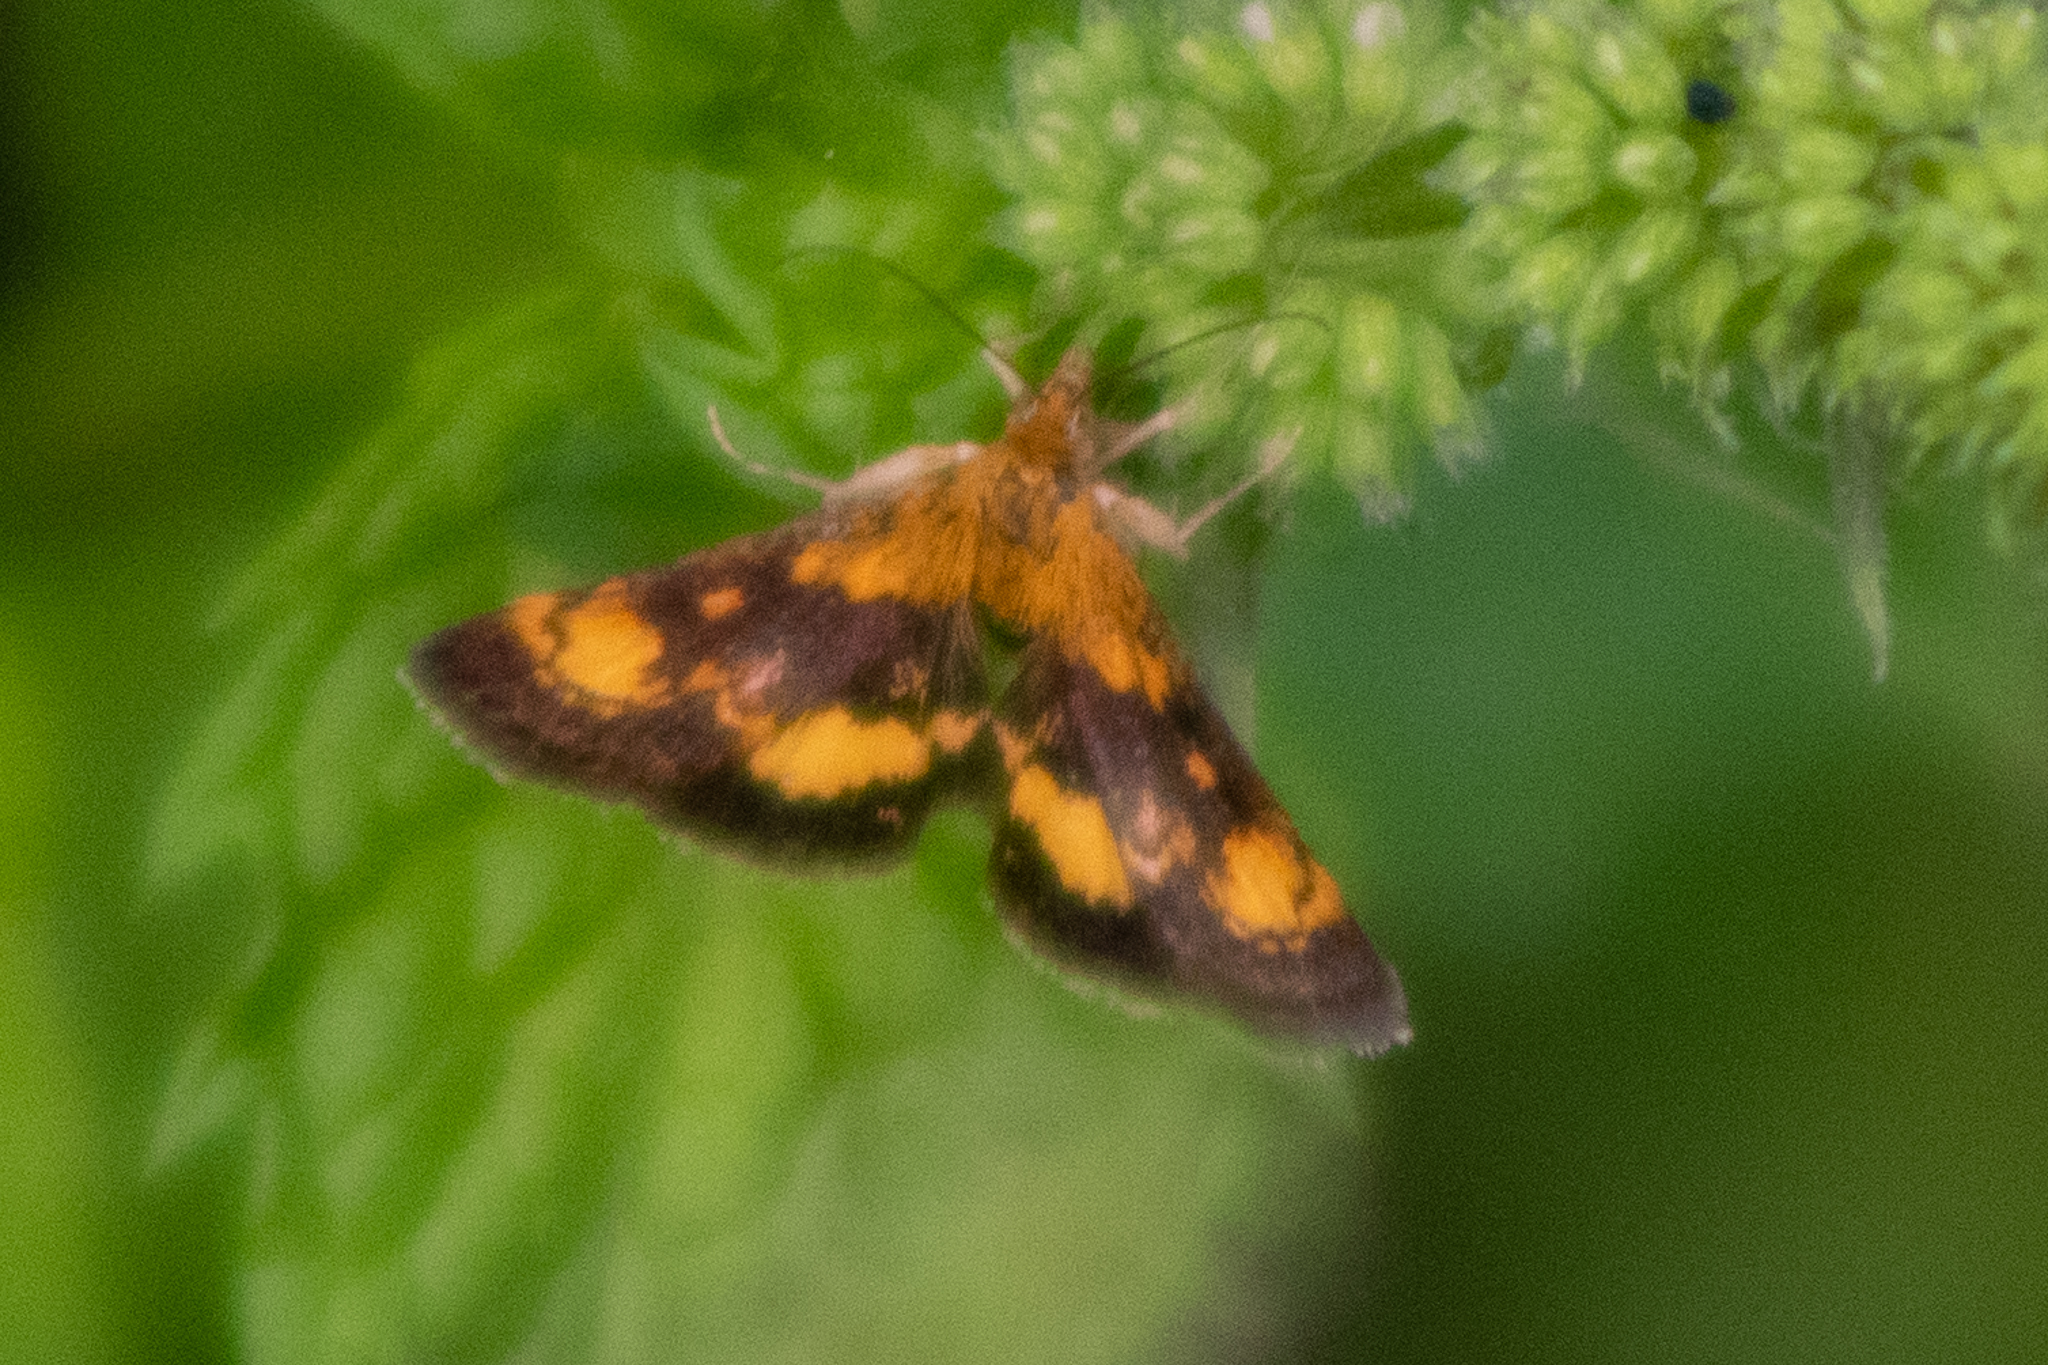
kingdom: Animalia
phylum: Arthropoda
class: Insecta
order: Lepidoptera
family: Crambidae
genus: Pyrausta
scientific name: Pyrausta orphisalis
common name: Orange mint moth
